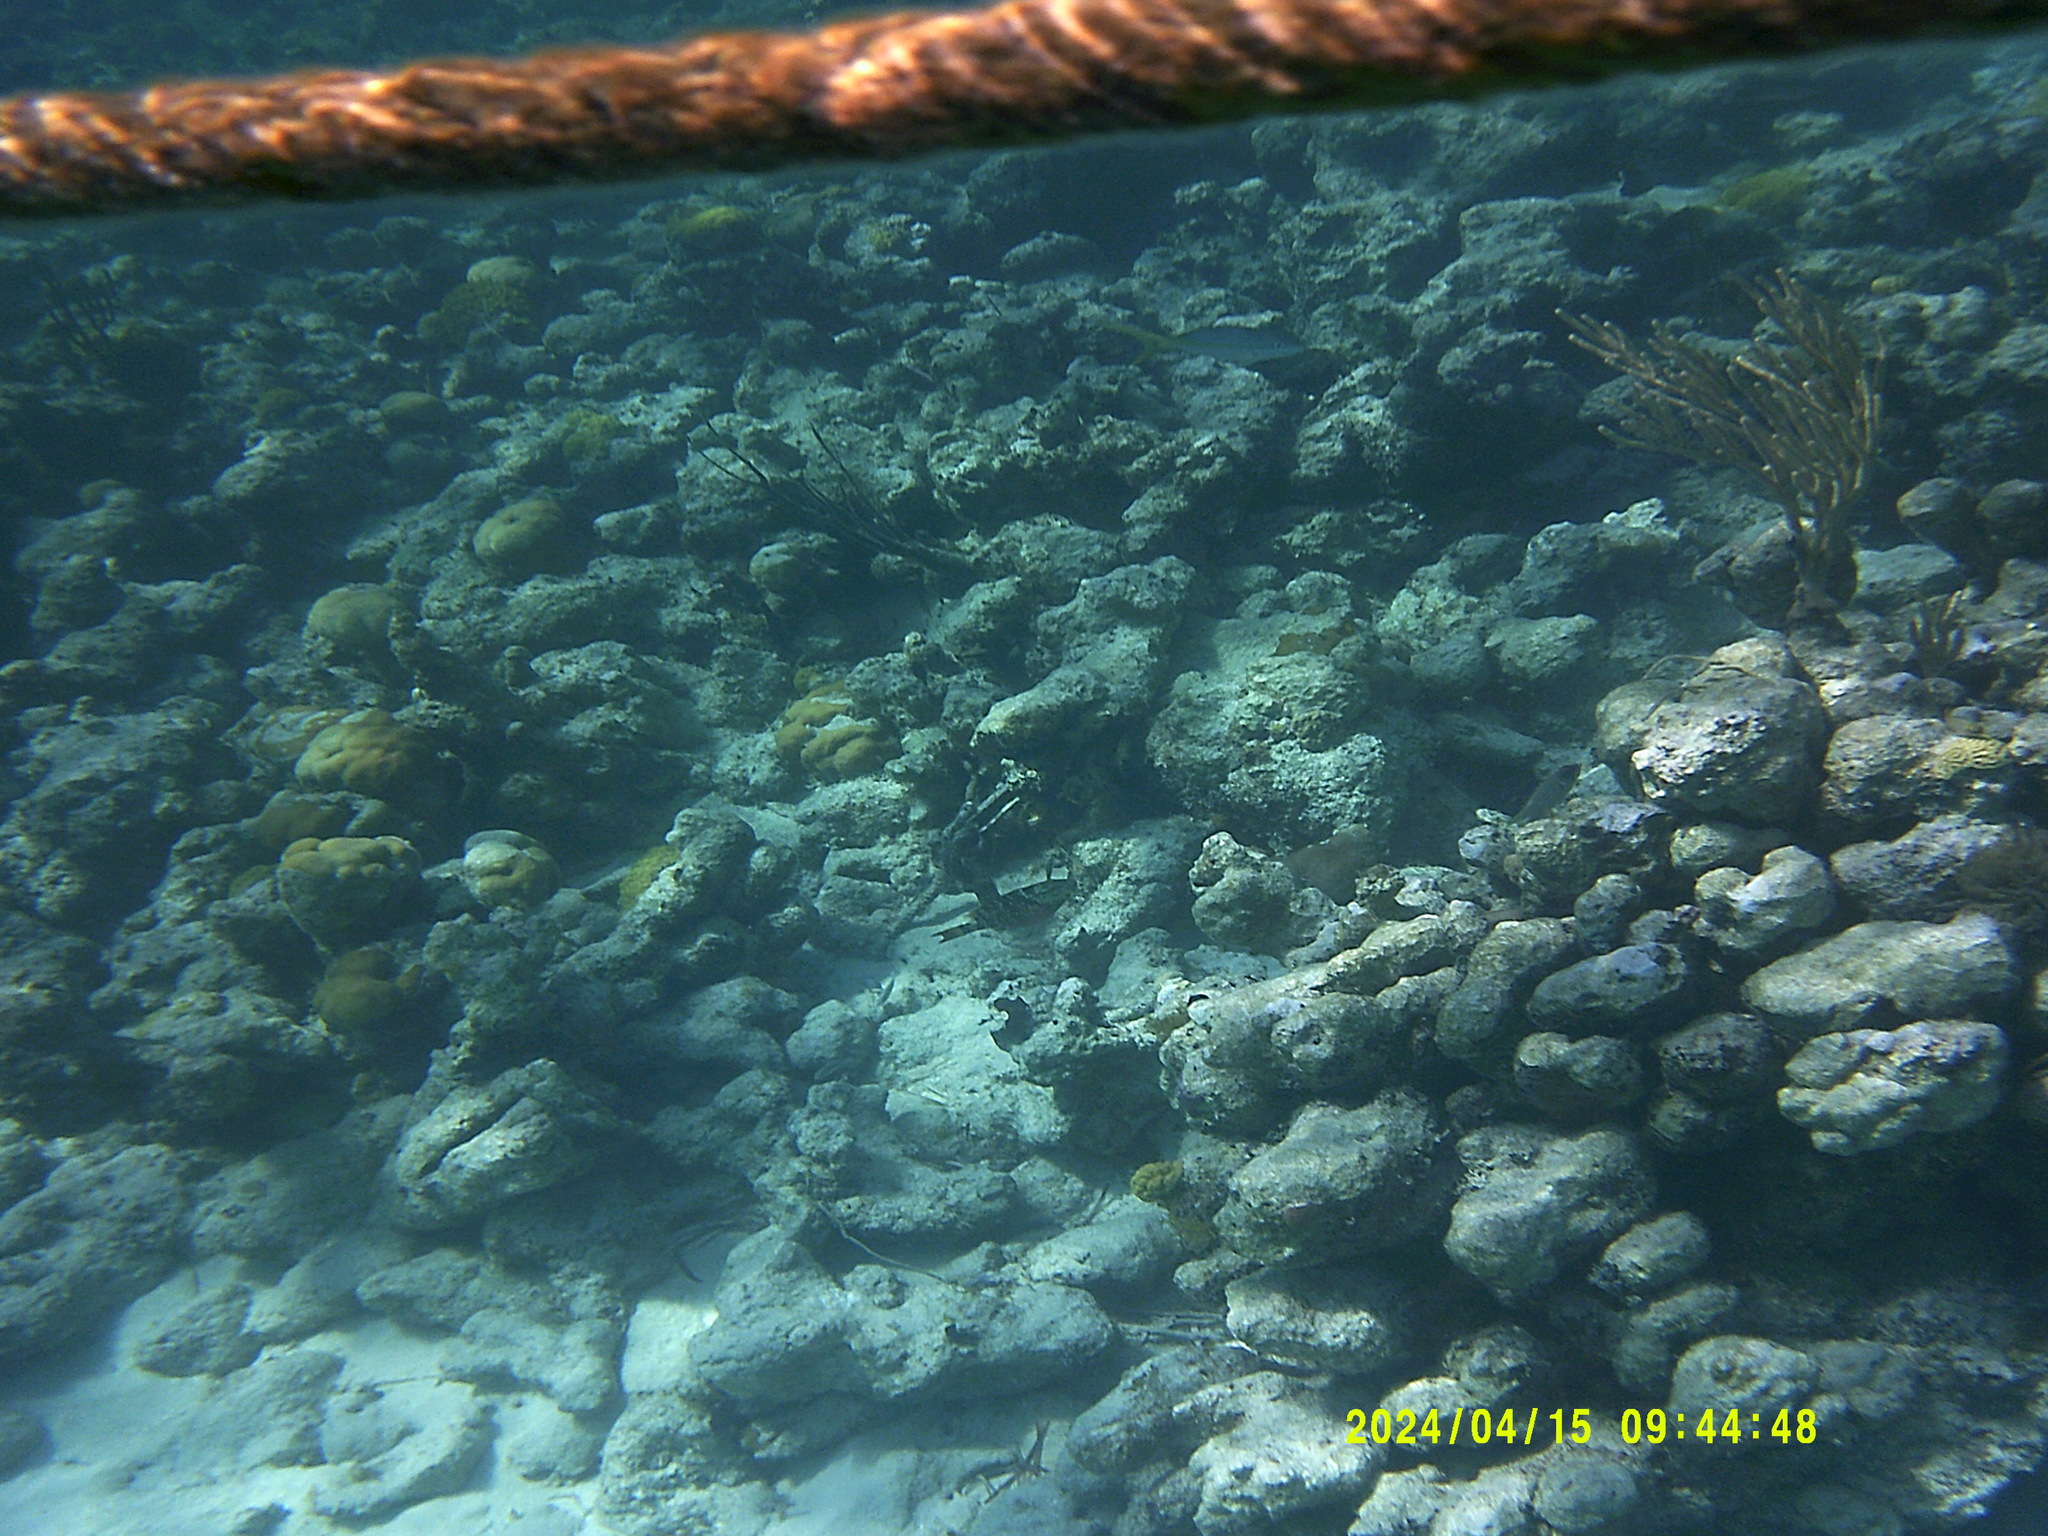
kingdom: Animalia
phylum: Chordata
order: Perciformes
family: Lutjanidae
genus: Ocyurus
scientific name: Ocyurus chrysurus
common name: Yellowtail snapper
